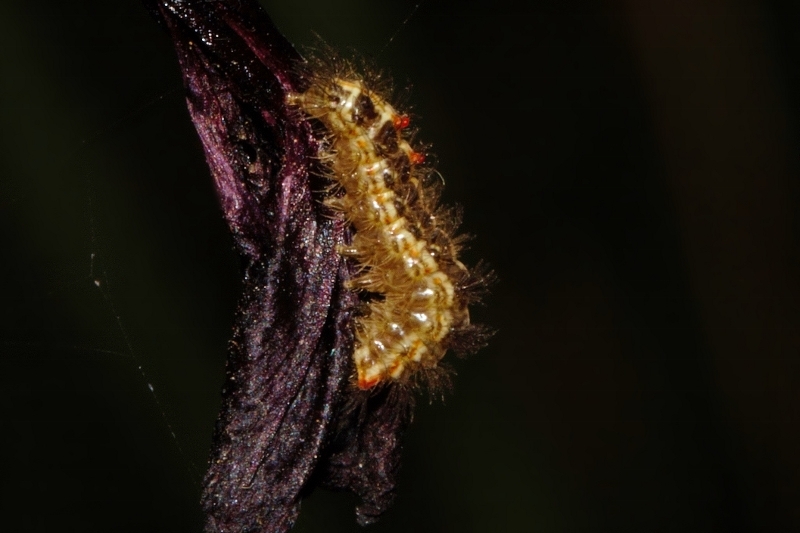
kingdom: Animalia
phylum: Arthropoda
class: Insecta
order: Lepidoptera
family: Erebidae
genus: Lacipa
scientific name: Lacipa gracilis
